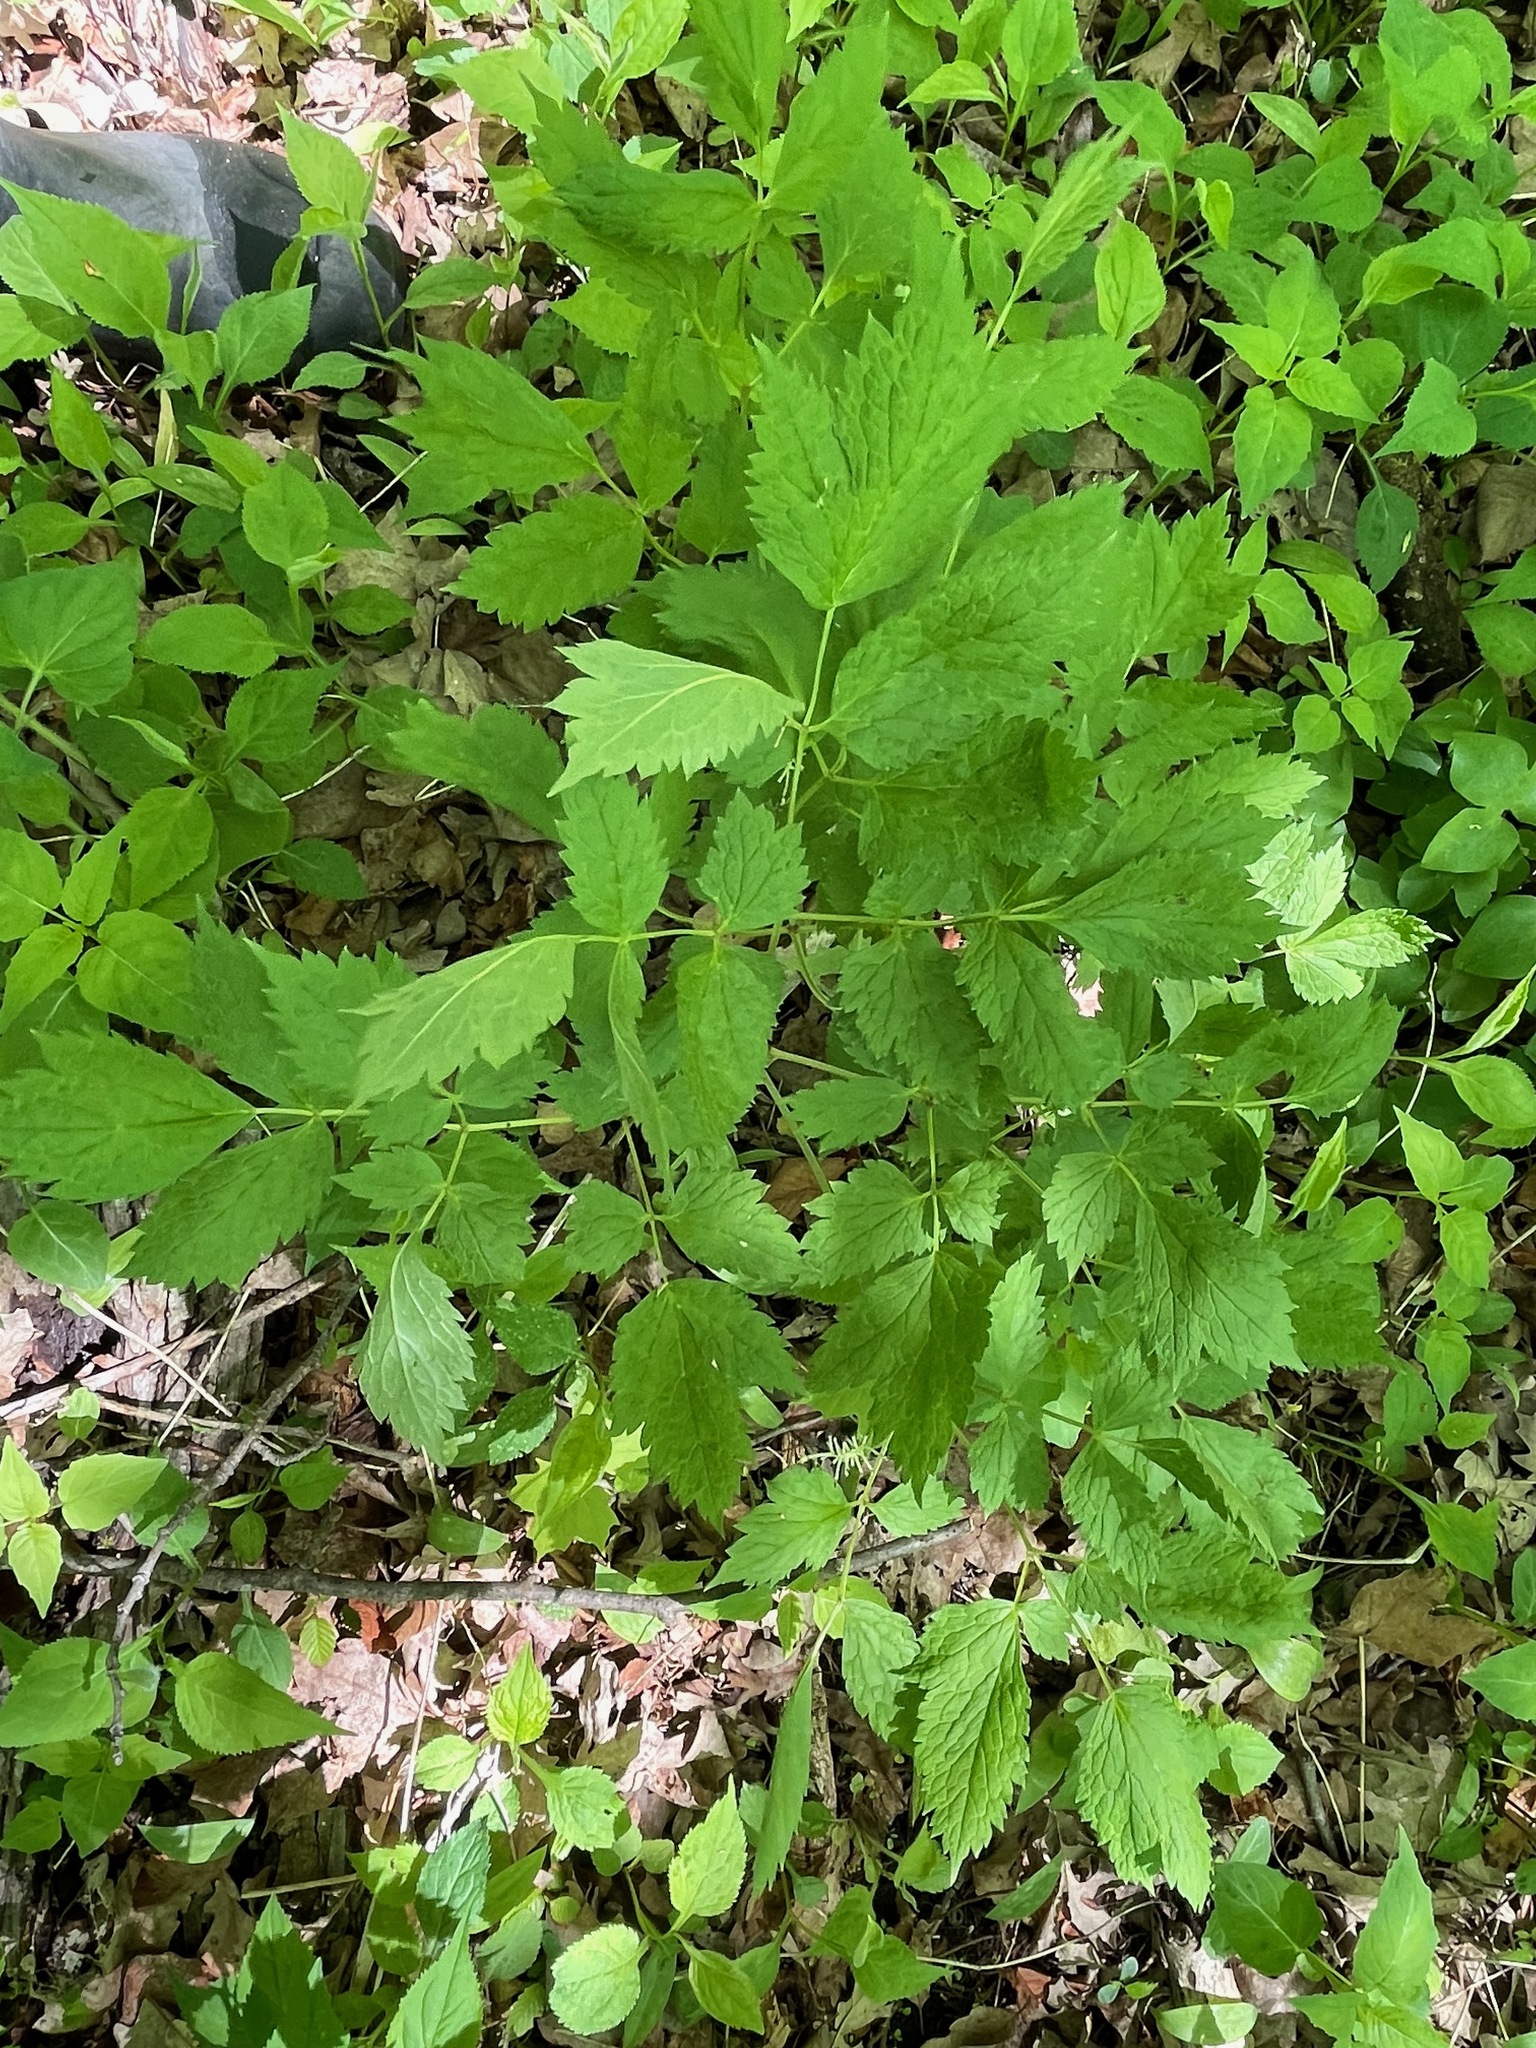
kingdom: Plantae
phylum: Tracheophyta
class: Magnoliopsida
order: Ranunculales
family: Ranunculaceae
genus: Actaea
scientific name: Actaea pachypoda
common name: Doll's-eyes
